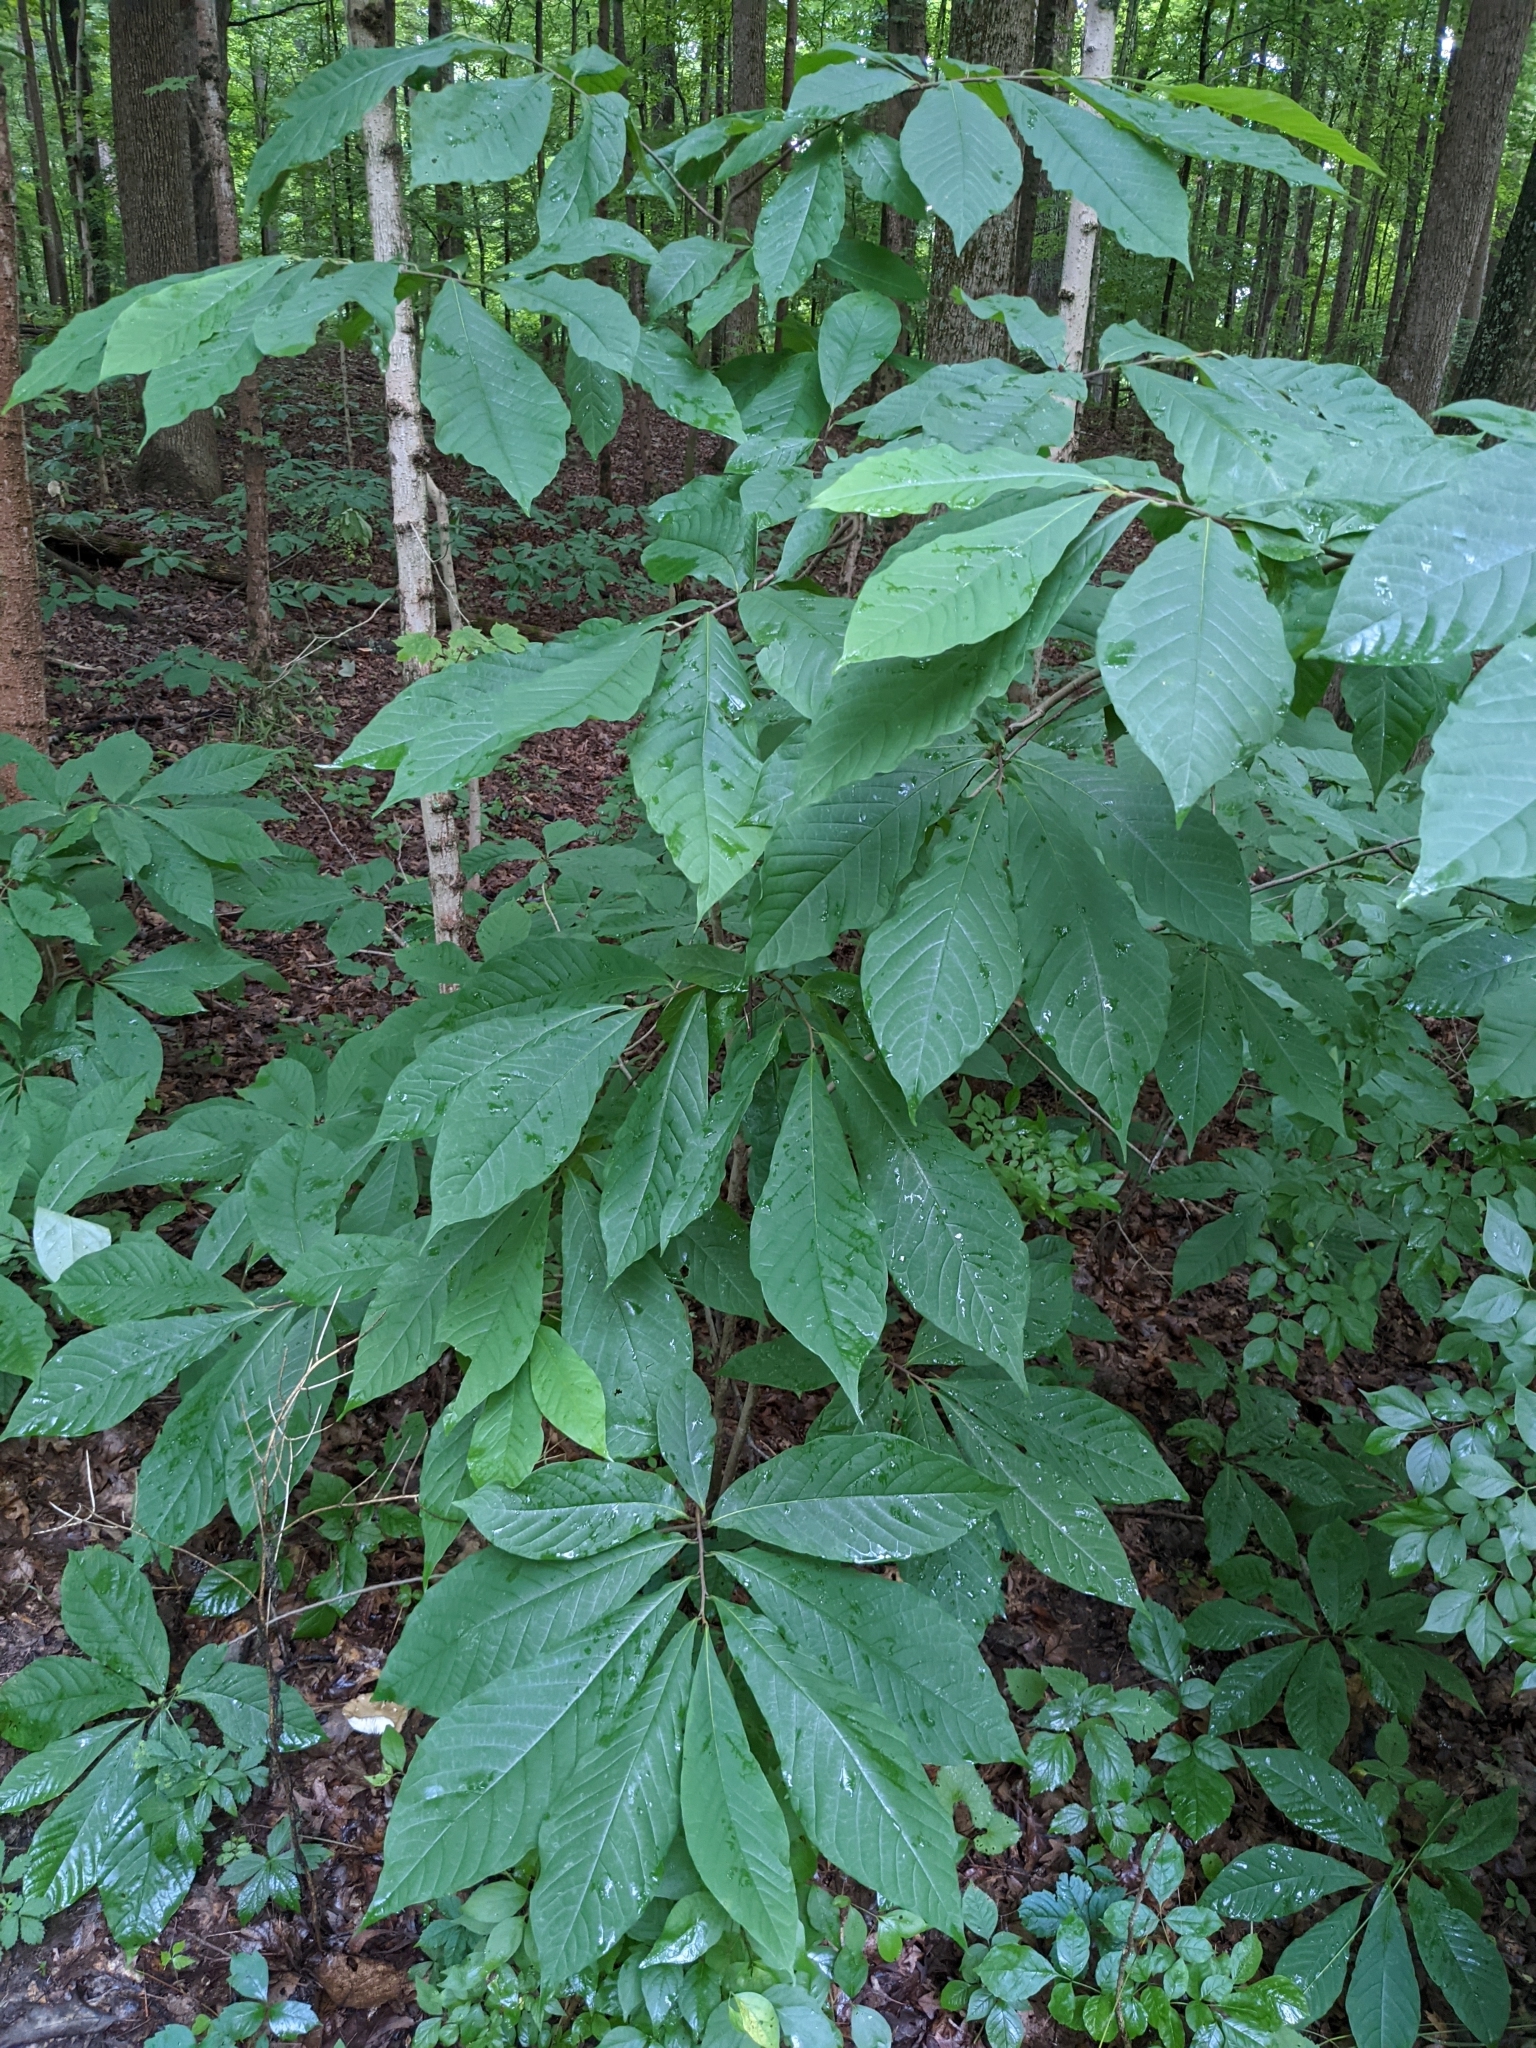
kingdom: Plantae
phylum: Tracheophyta
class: Magnoliopsida
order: Magnoliales
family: Annonaceae
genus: Asimina
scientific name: Asimina triloba
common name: Dog-banana
